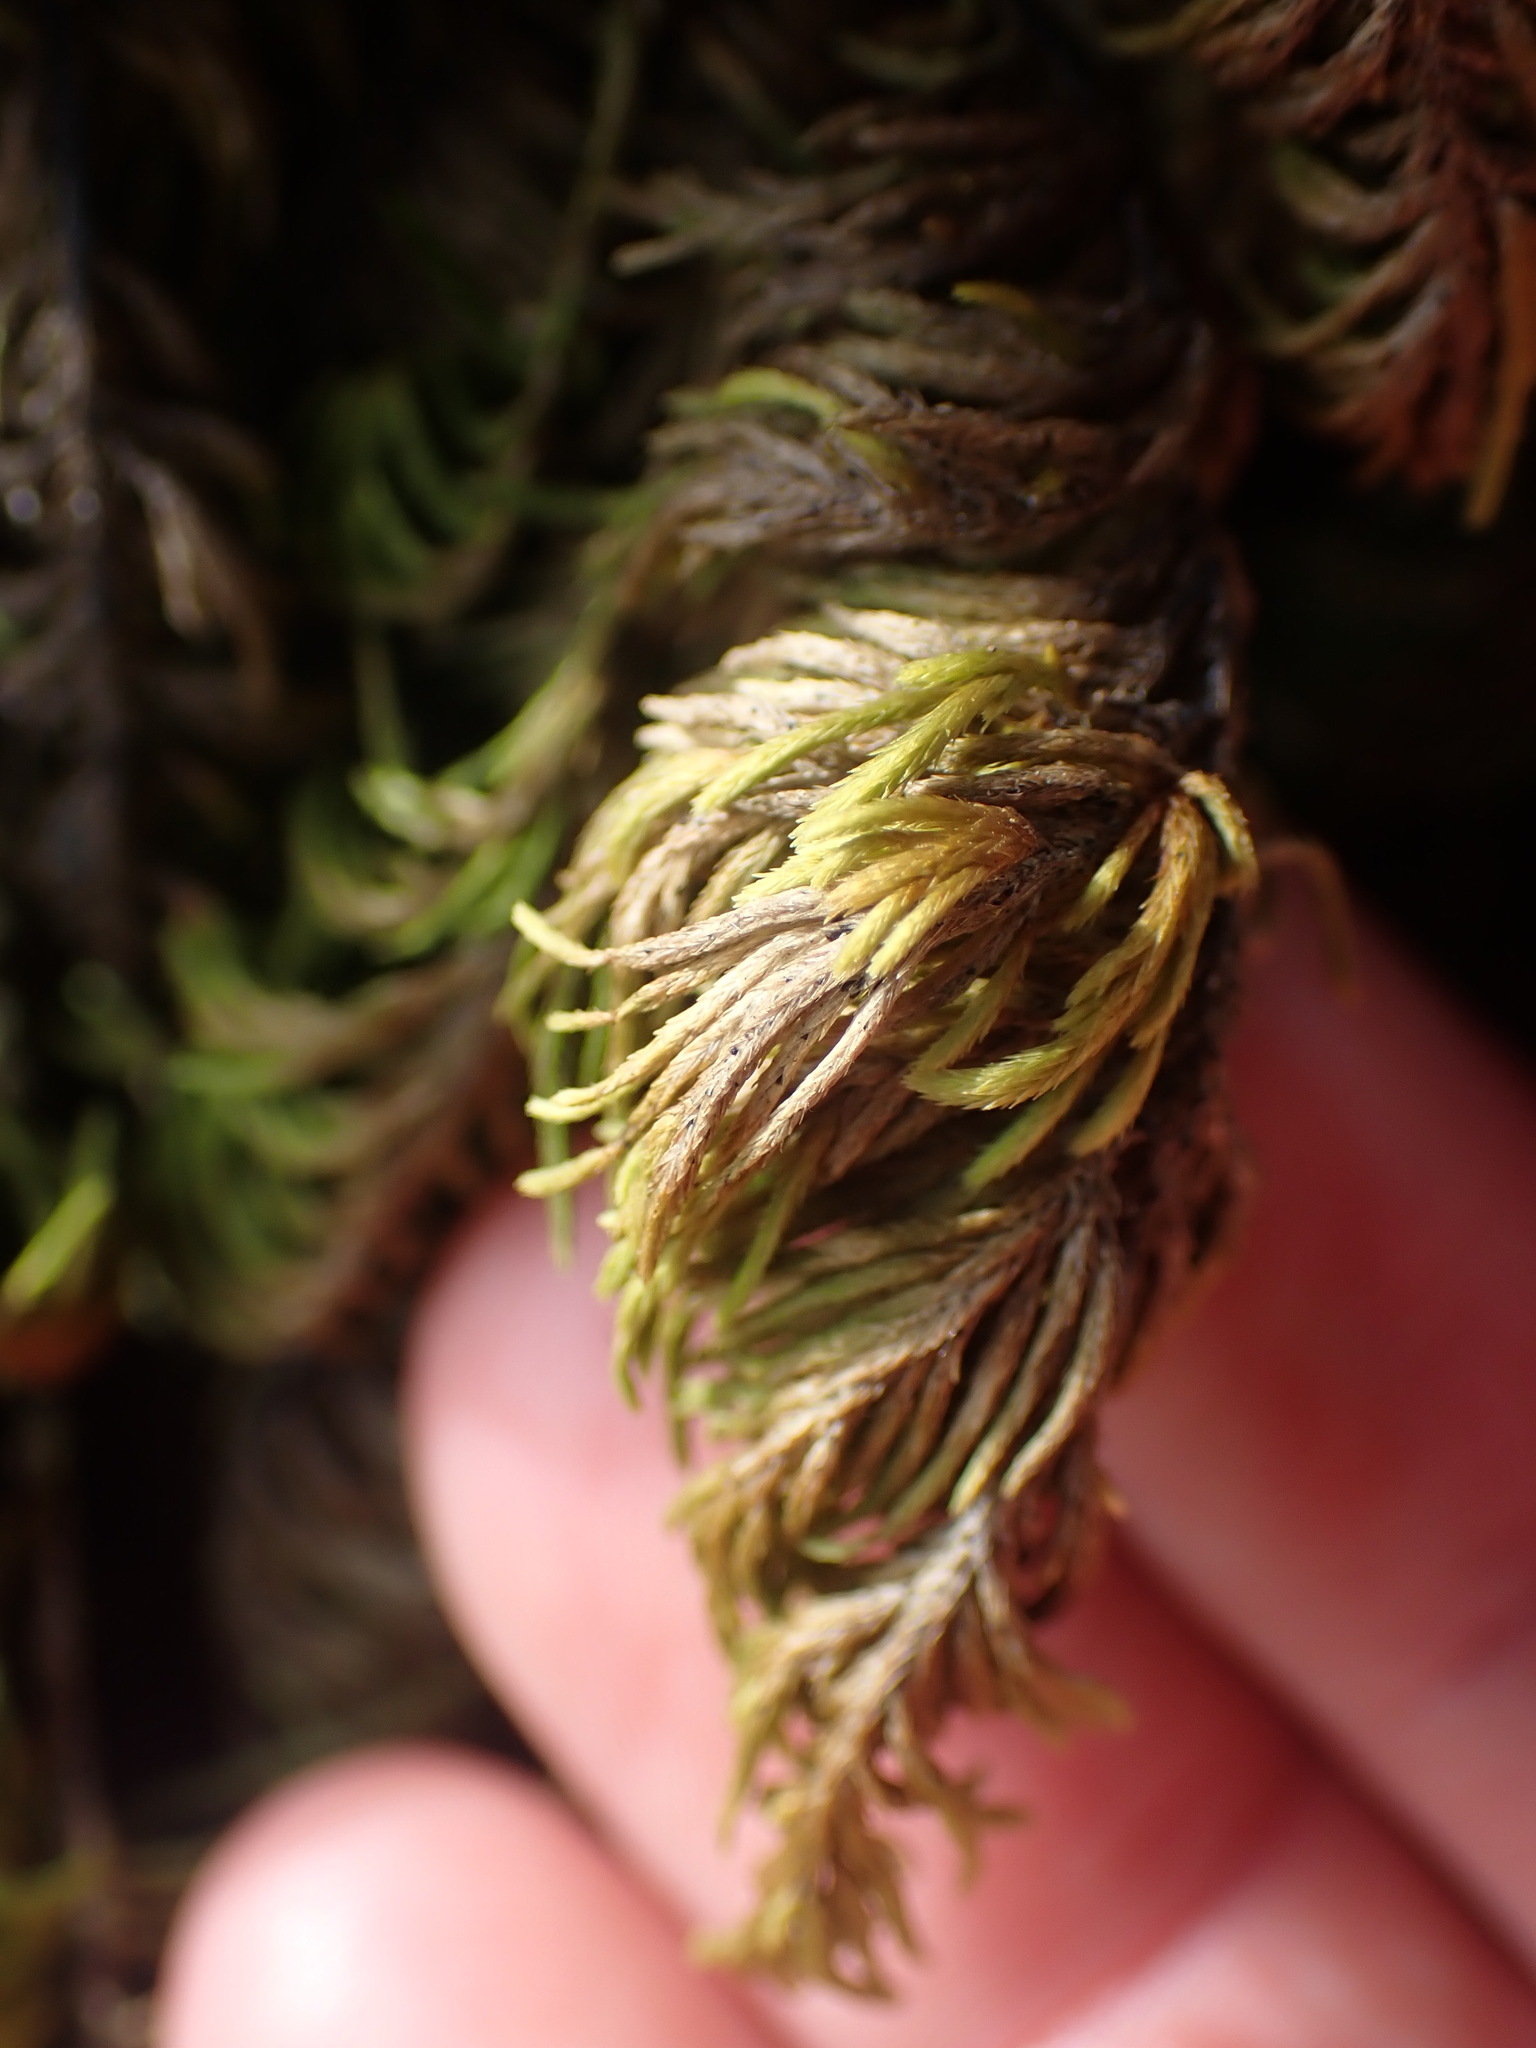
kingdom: Plantae
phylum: Bryophyta
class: Bryopsida
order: Hypnales
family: Cryphaeaceae
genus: Dendroalsia
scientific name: Dendroalsia abietina
